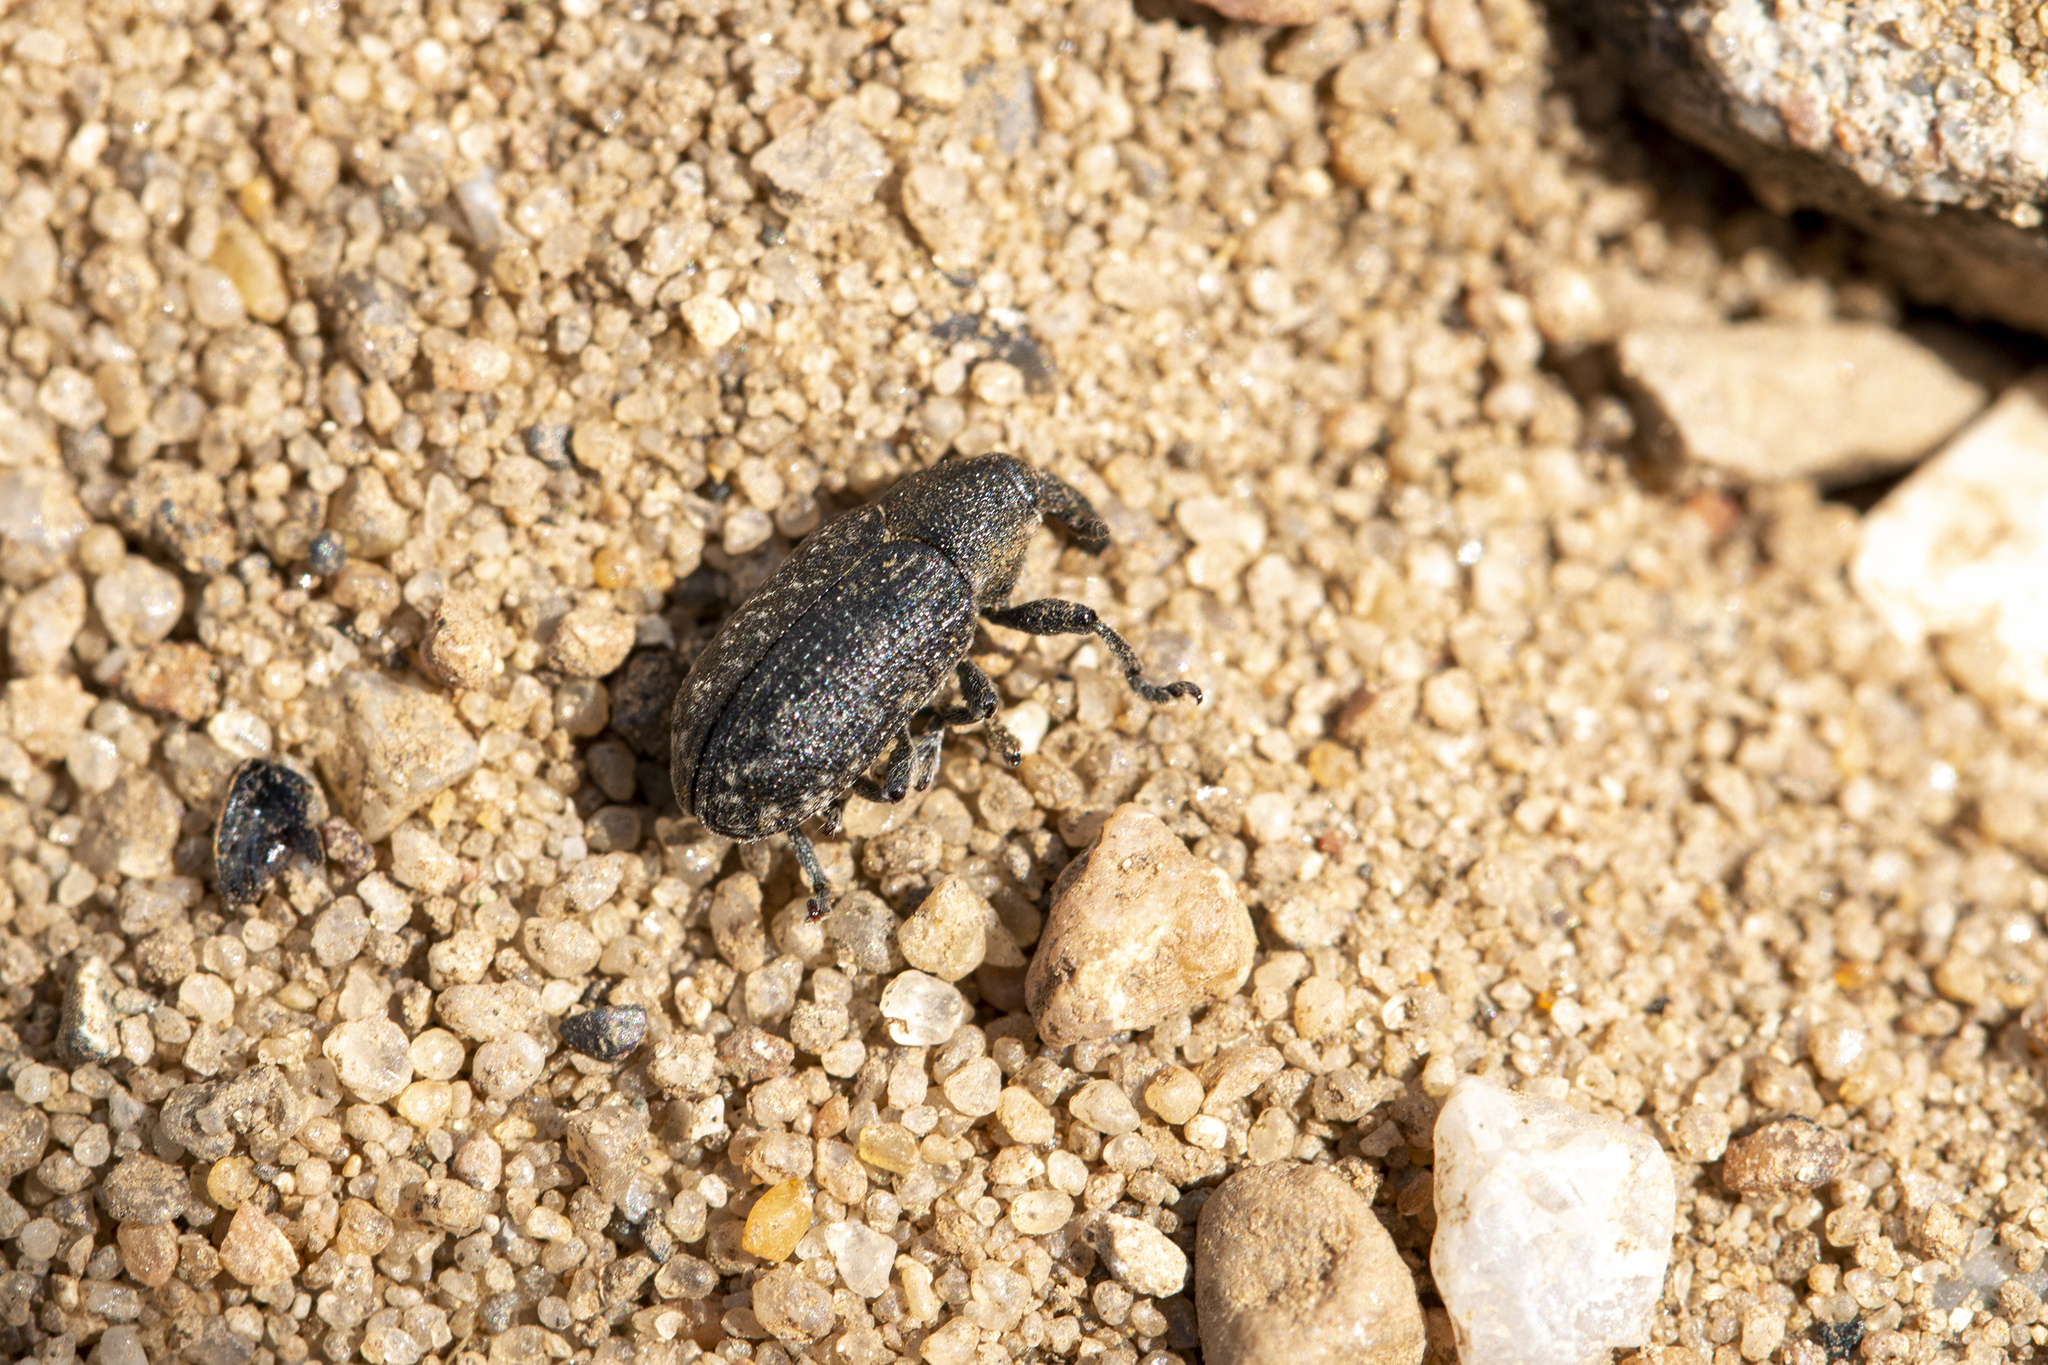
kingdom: Animalia
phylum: Arthropoda
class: Insecta
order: Coleoptera
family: Curculionidae
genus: Larinus
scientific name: Larinus carlinae
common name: Weevil
